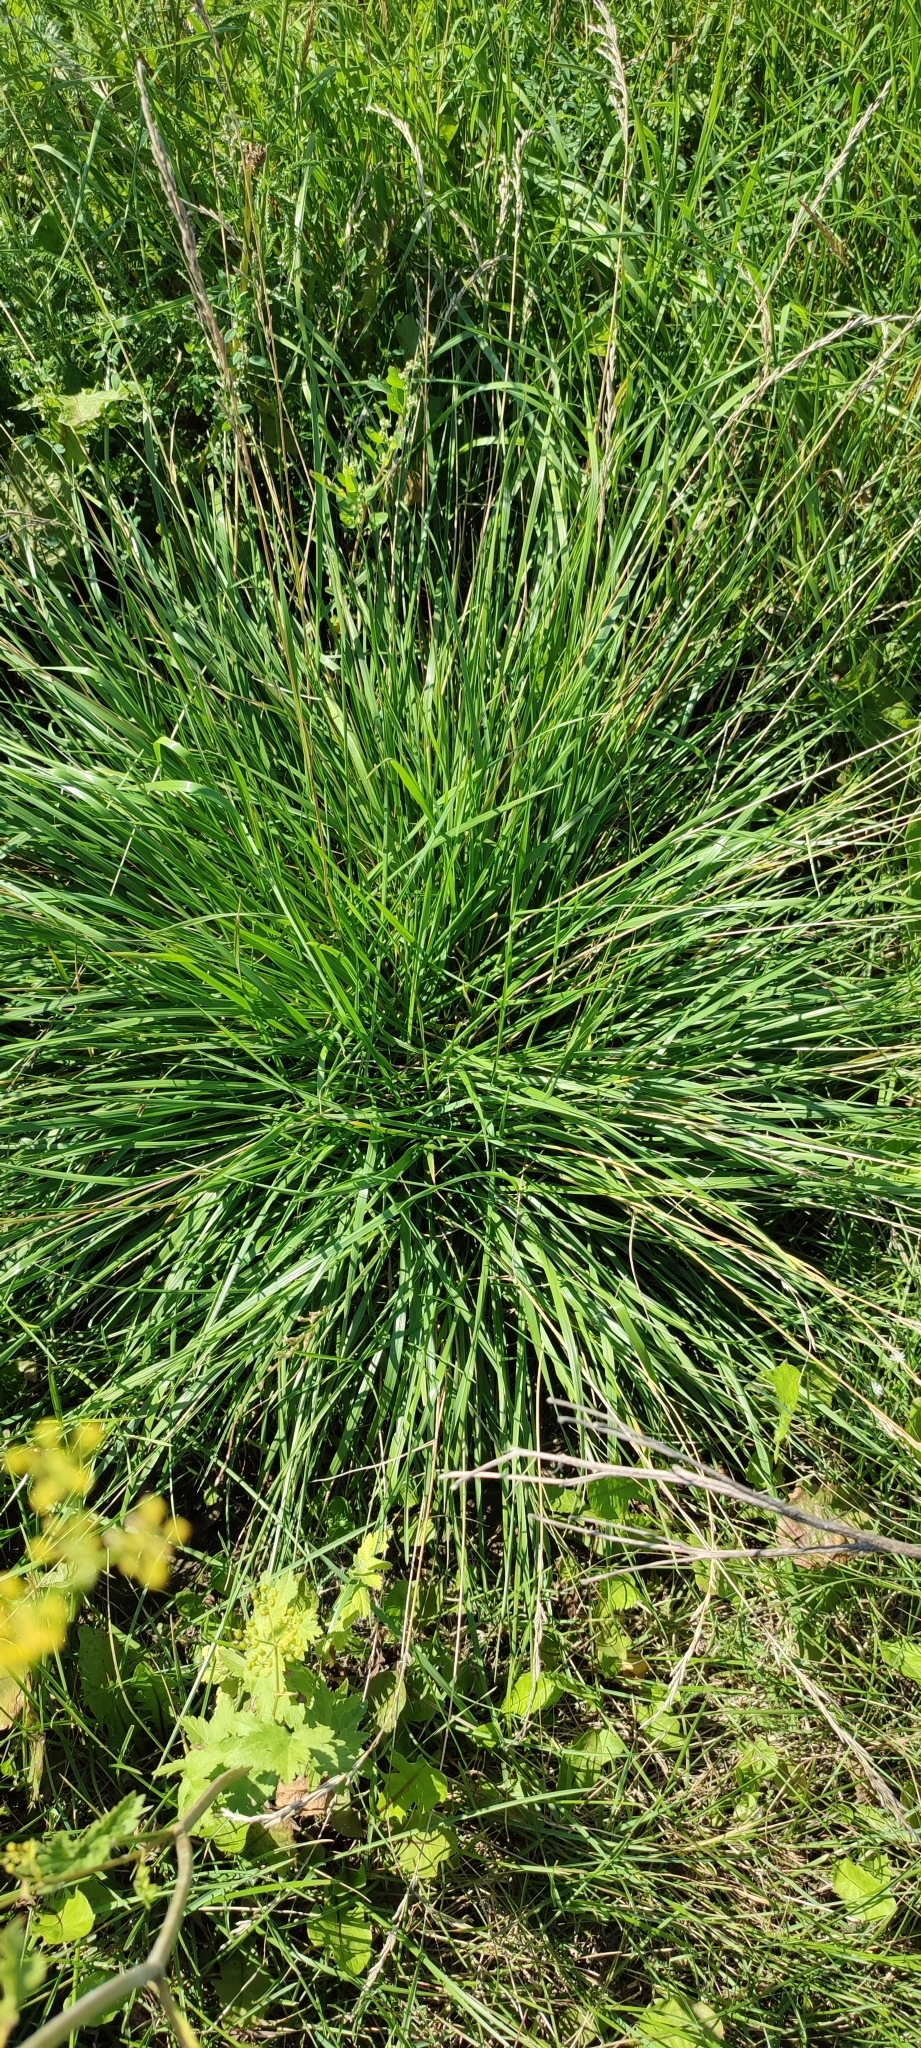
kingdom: Plantae
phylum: Tracheophyta
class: Liliopsida
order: Poales
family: Poaceae
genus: Lolium
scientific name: Lolium arundinaceum
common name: Reed fescue
